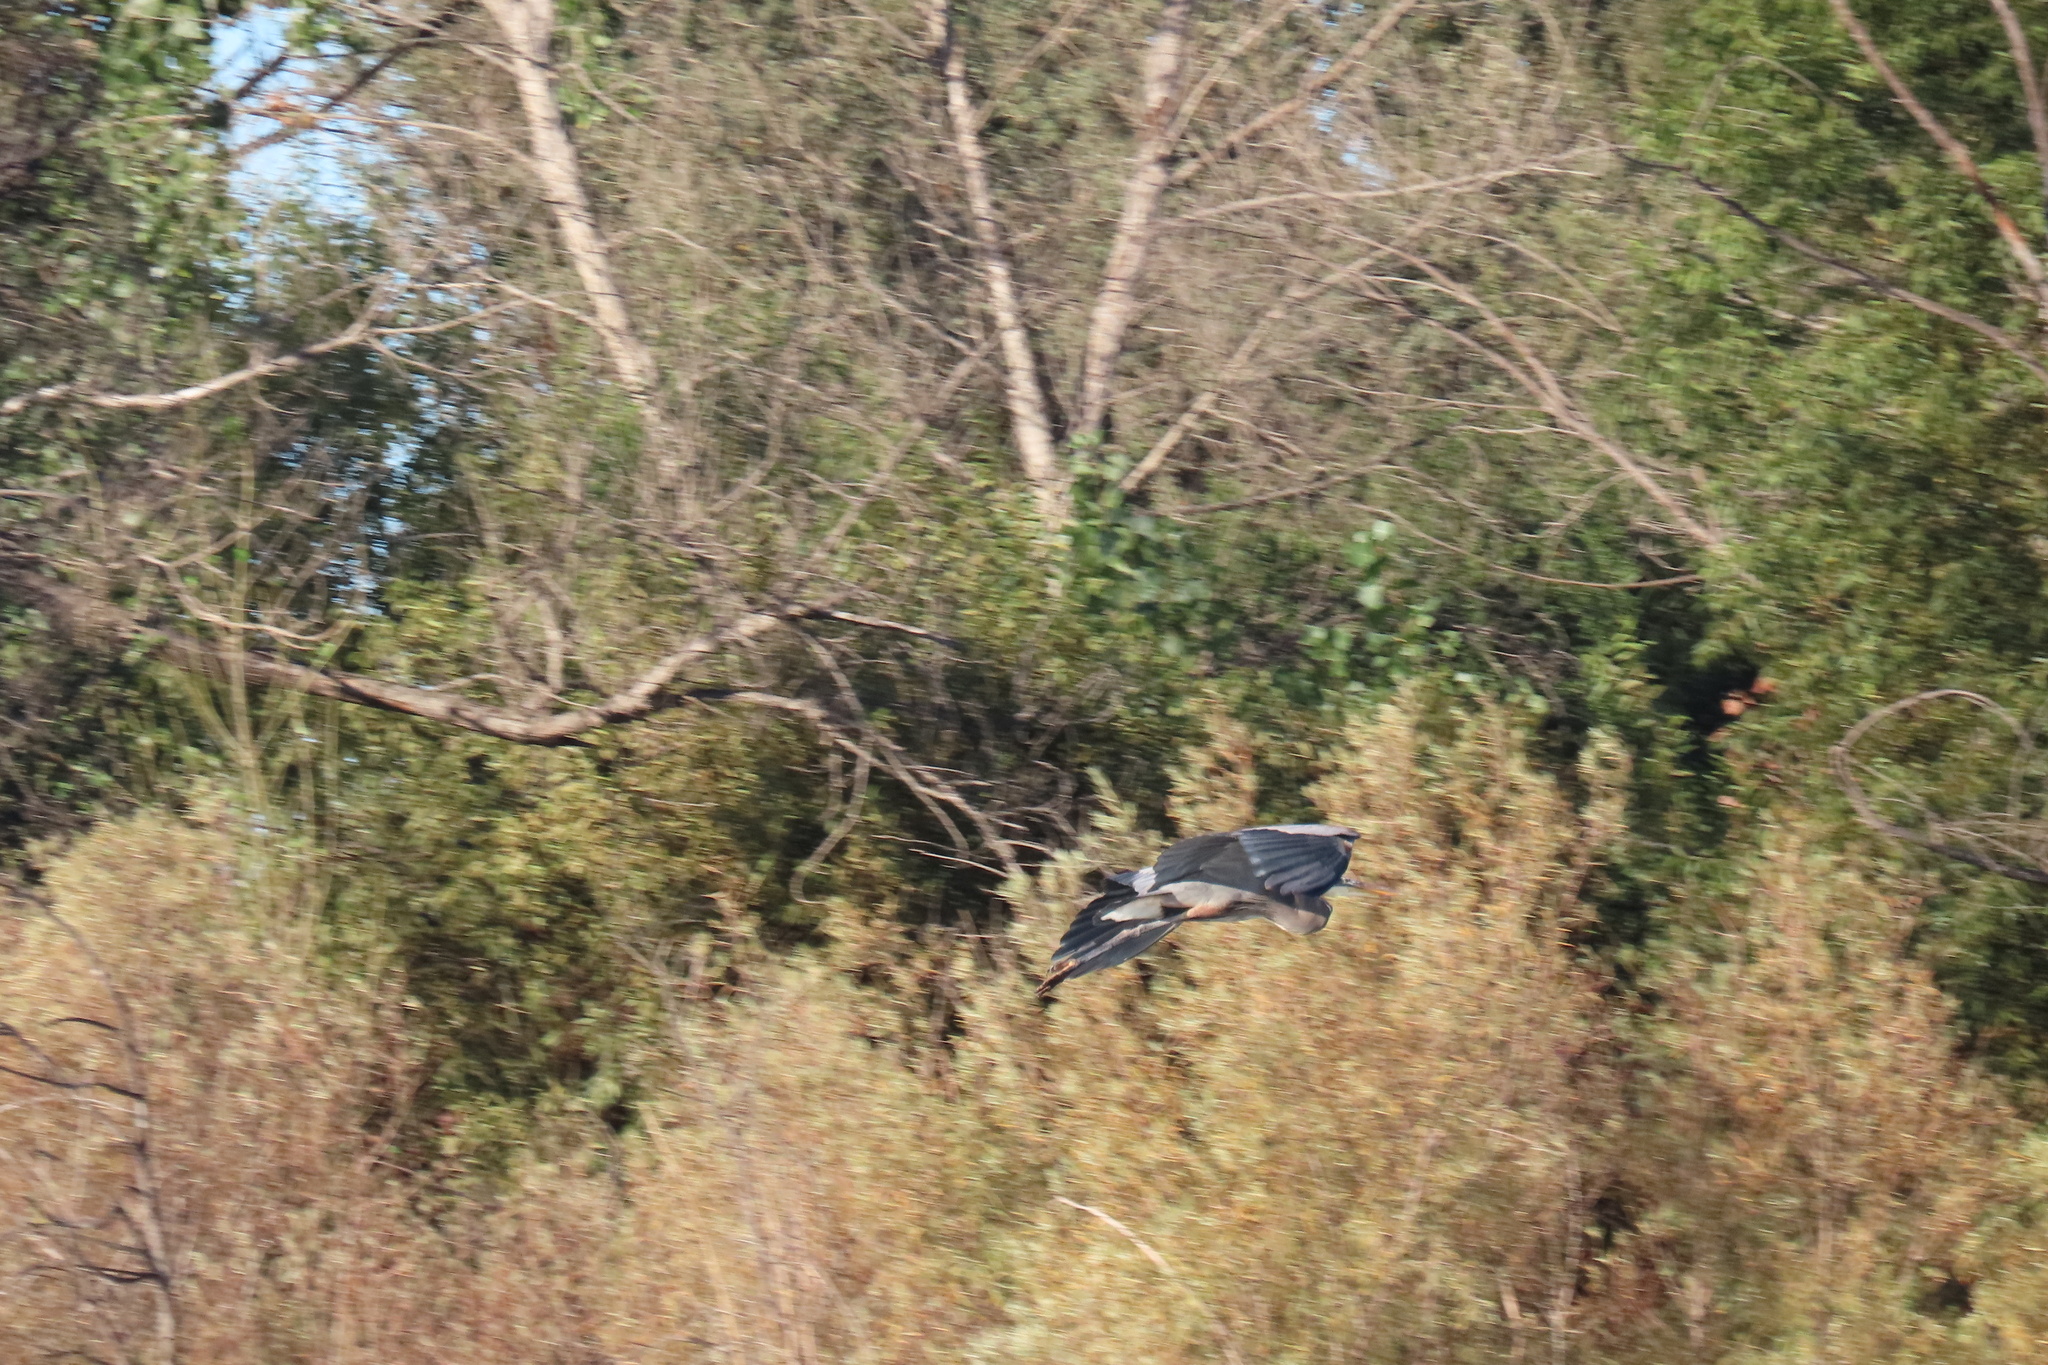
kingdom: Animalia
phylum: Chordata
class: Aves
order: Pelecaniformes
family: Ardeidae
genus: Ardea
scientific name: Ardea herodias
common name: Great blue heron
